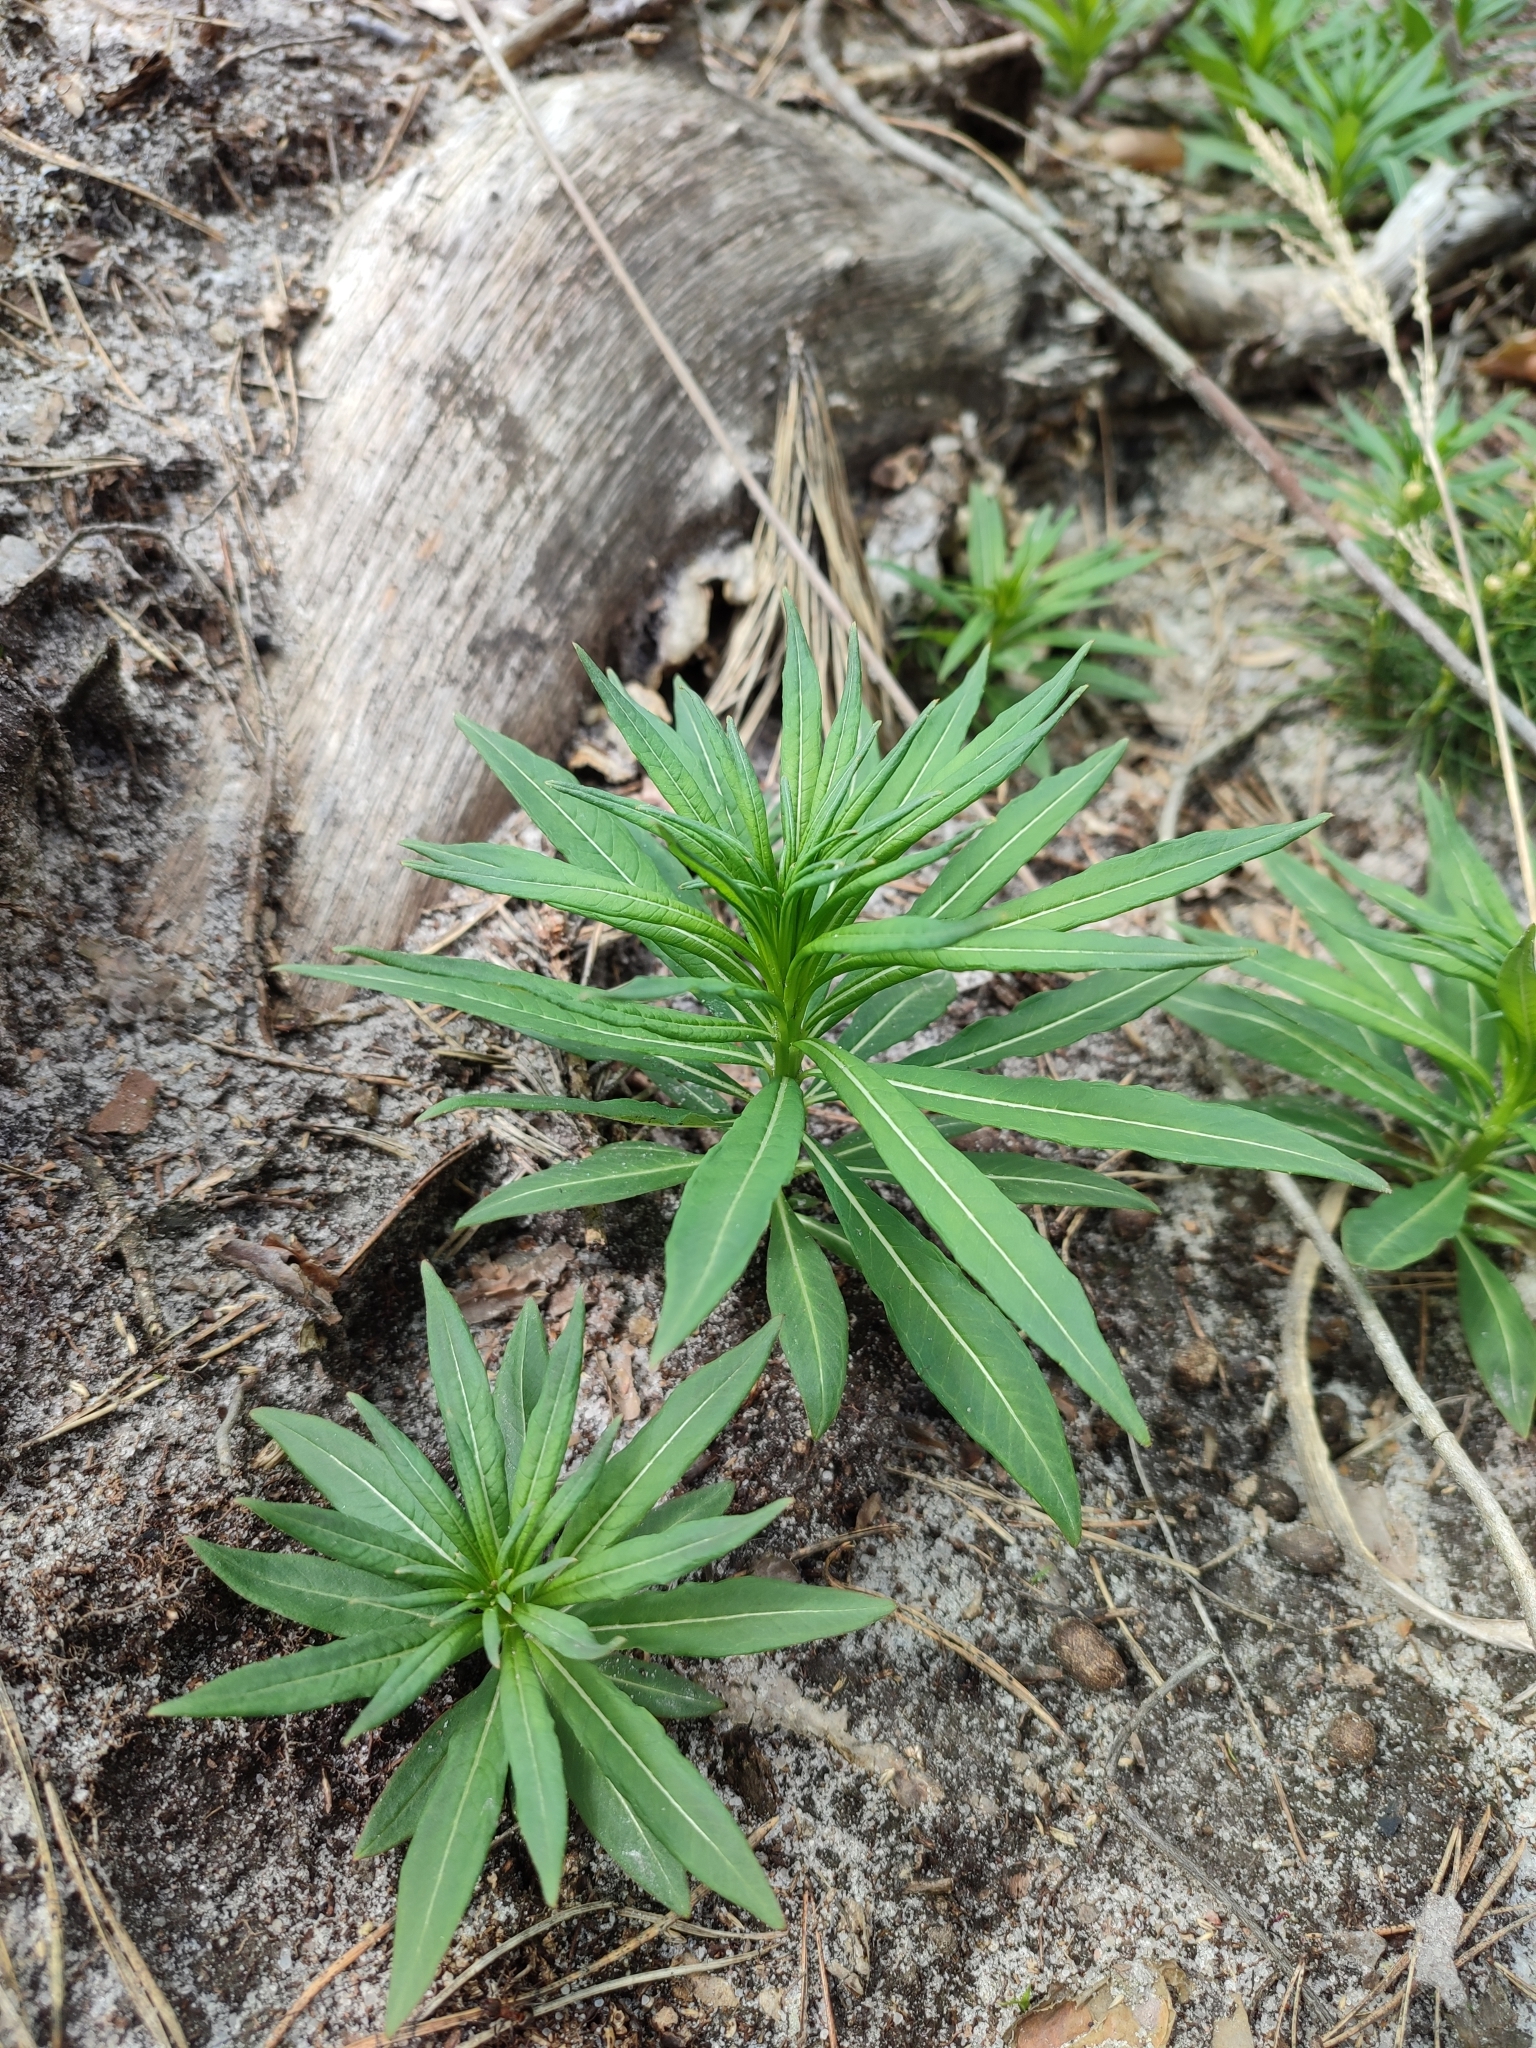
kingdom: Plantae
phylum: Tracheophyta
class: Magnoliopsida
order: Myrtales
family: Onagraceae
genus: Chamaenerion
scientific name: Chamaenerion angustifolium
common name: Fireweed
